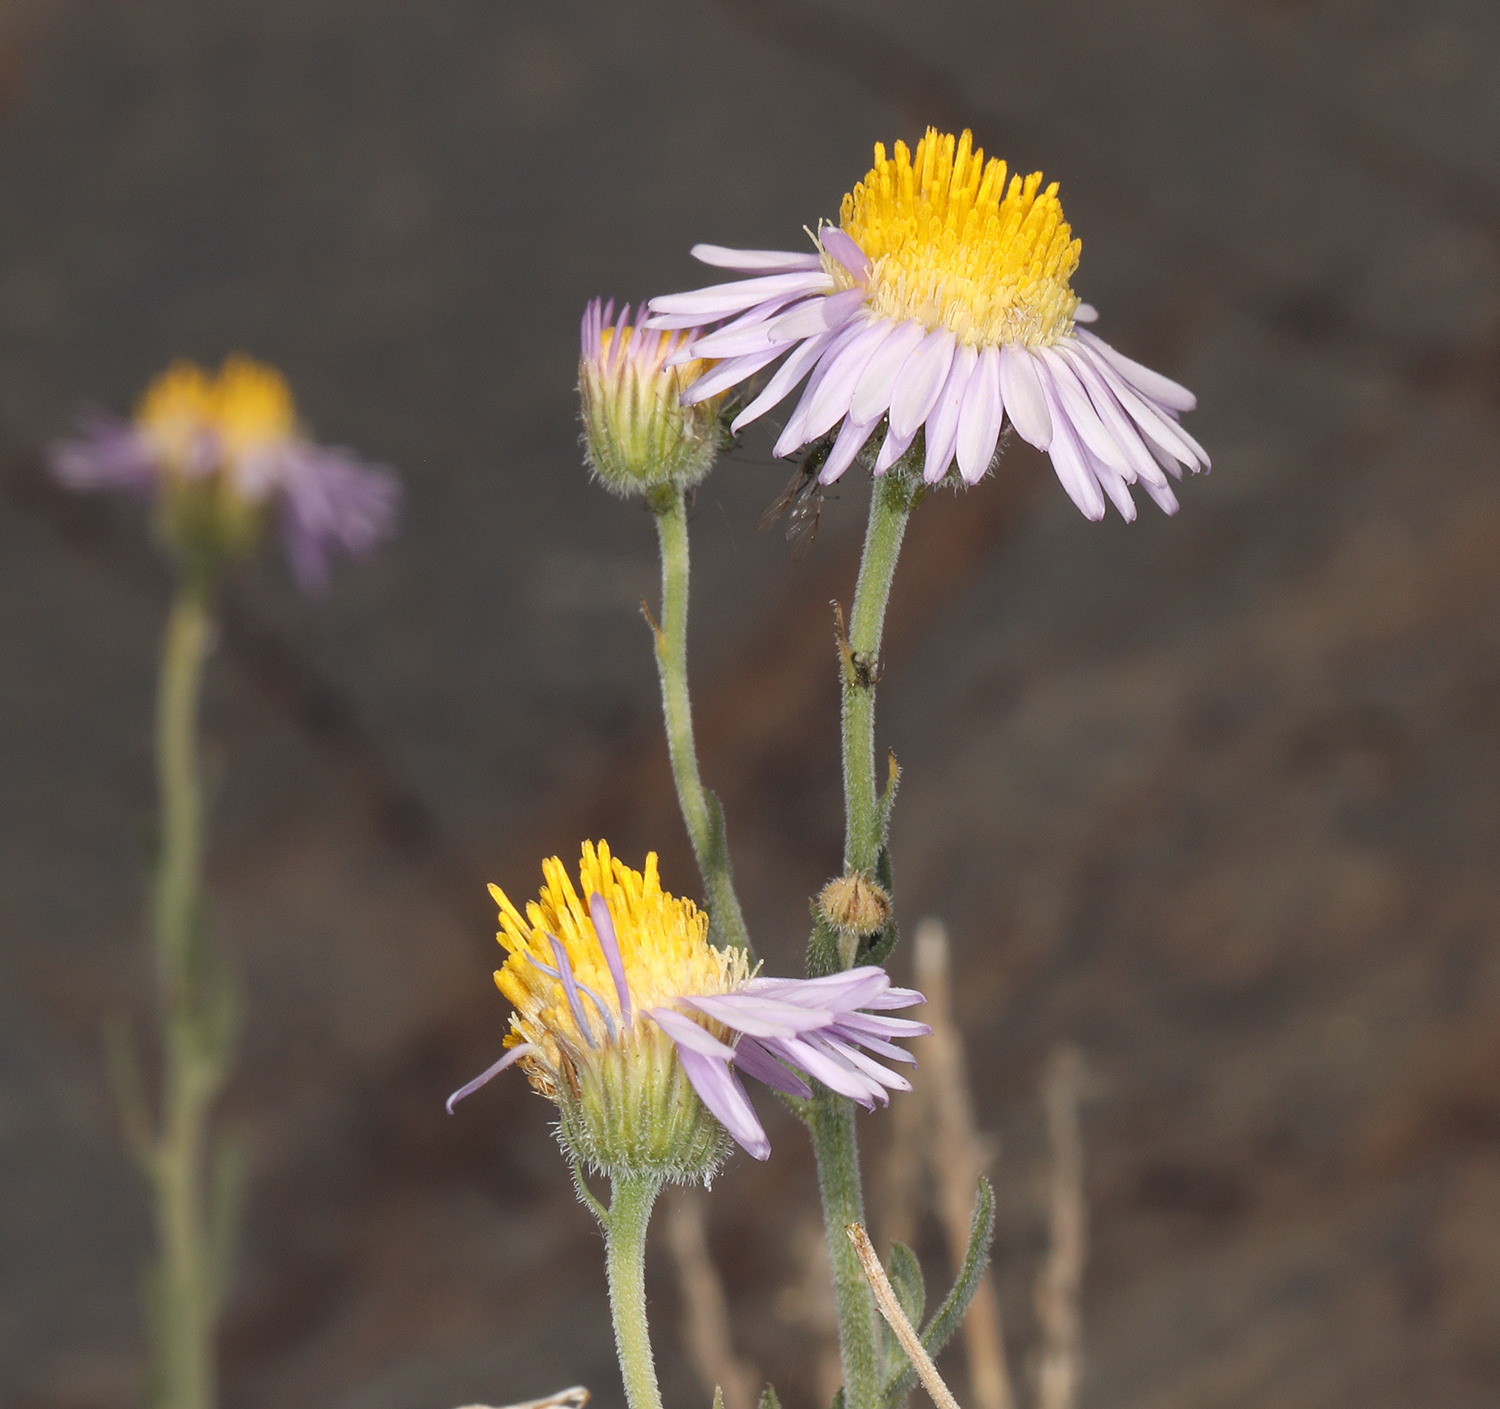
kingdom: Plantae
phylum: Tracheophyta
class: Magnoliopsida
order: Asterales
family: Asteraceae
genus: Erigeron
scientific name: Erigeron breweri
